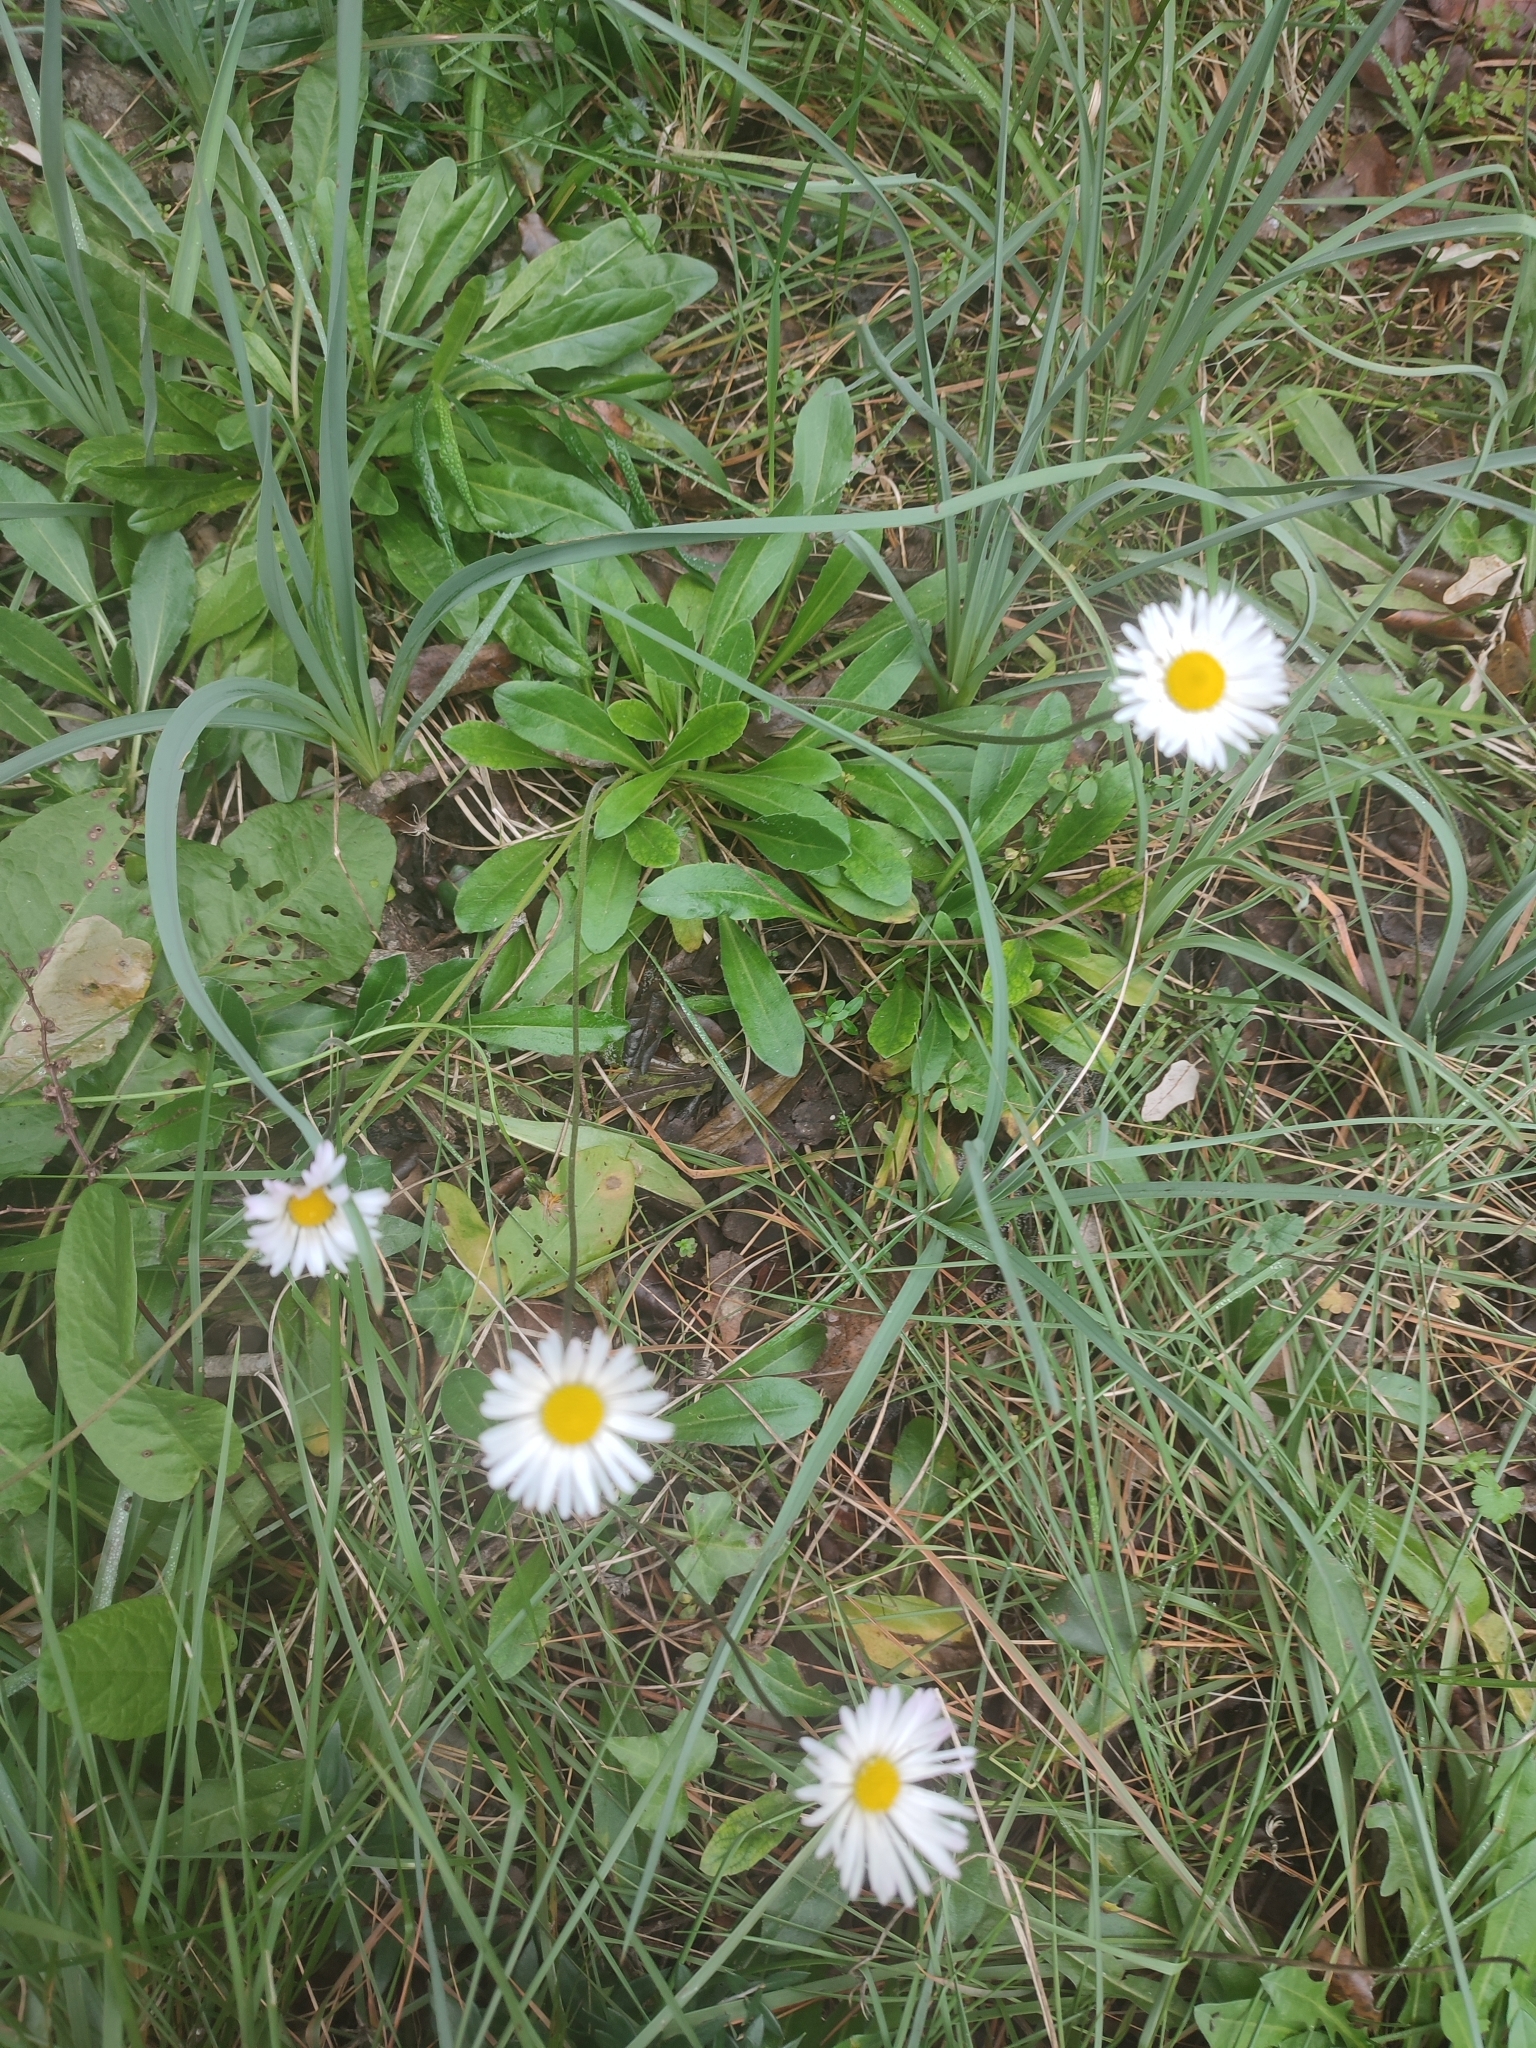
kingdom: Plantae
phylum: Tracheophyta
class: Magnoliopsida
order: Asterales
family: Asteraceae
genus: Bellis
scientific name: Bellis sylvestris
